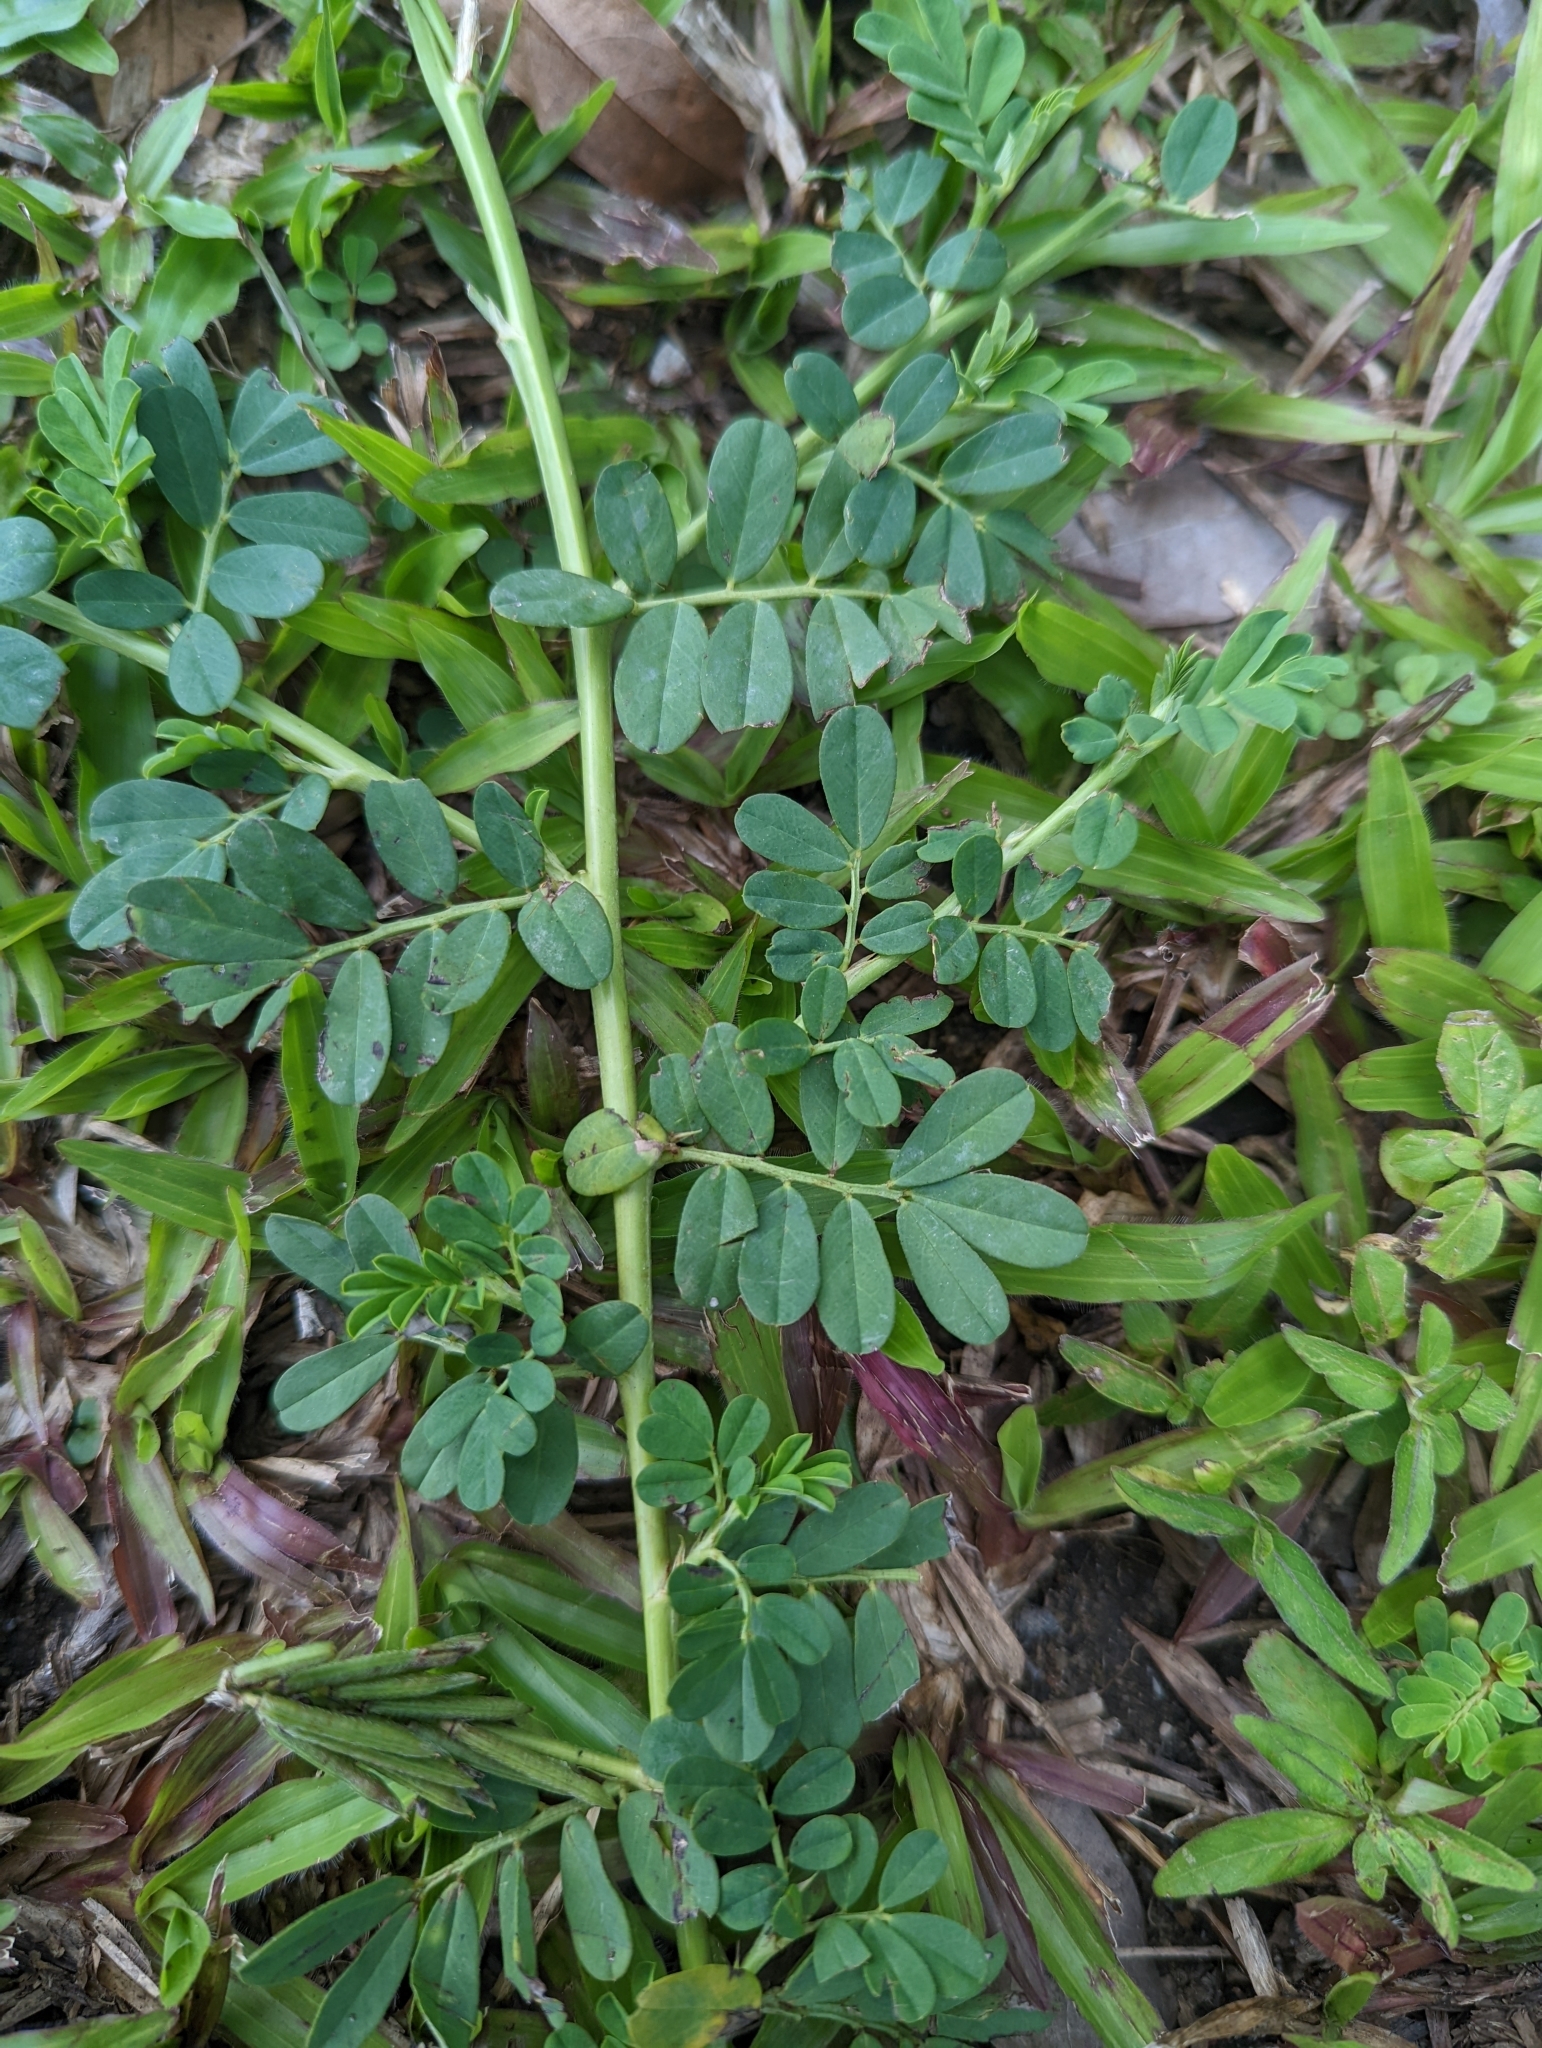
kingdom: Plantae
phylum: Tracheophyta
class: Magnoliopsida
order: Fabales
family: Fabaceae
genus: Indigofera
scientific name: Indigofera spicata
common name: Creeping indigo
